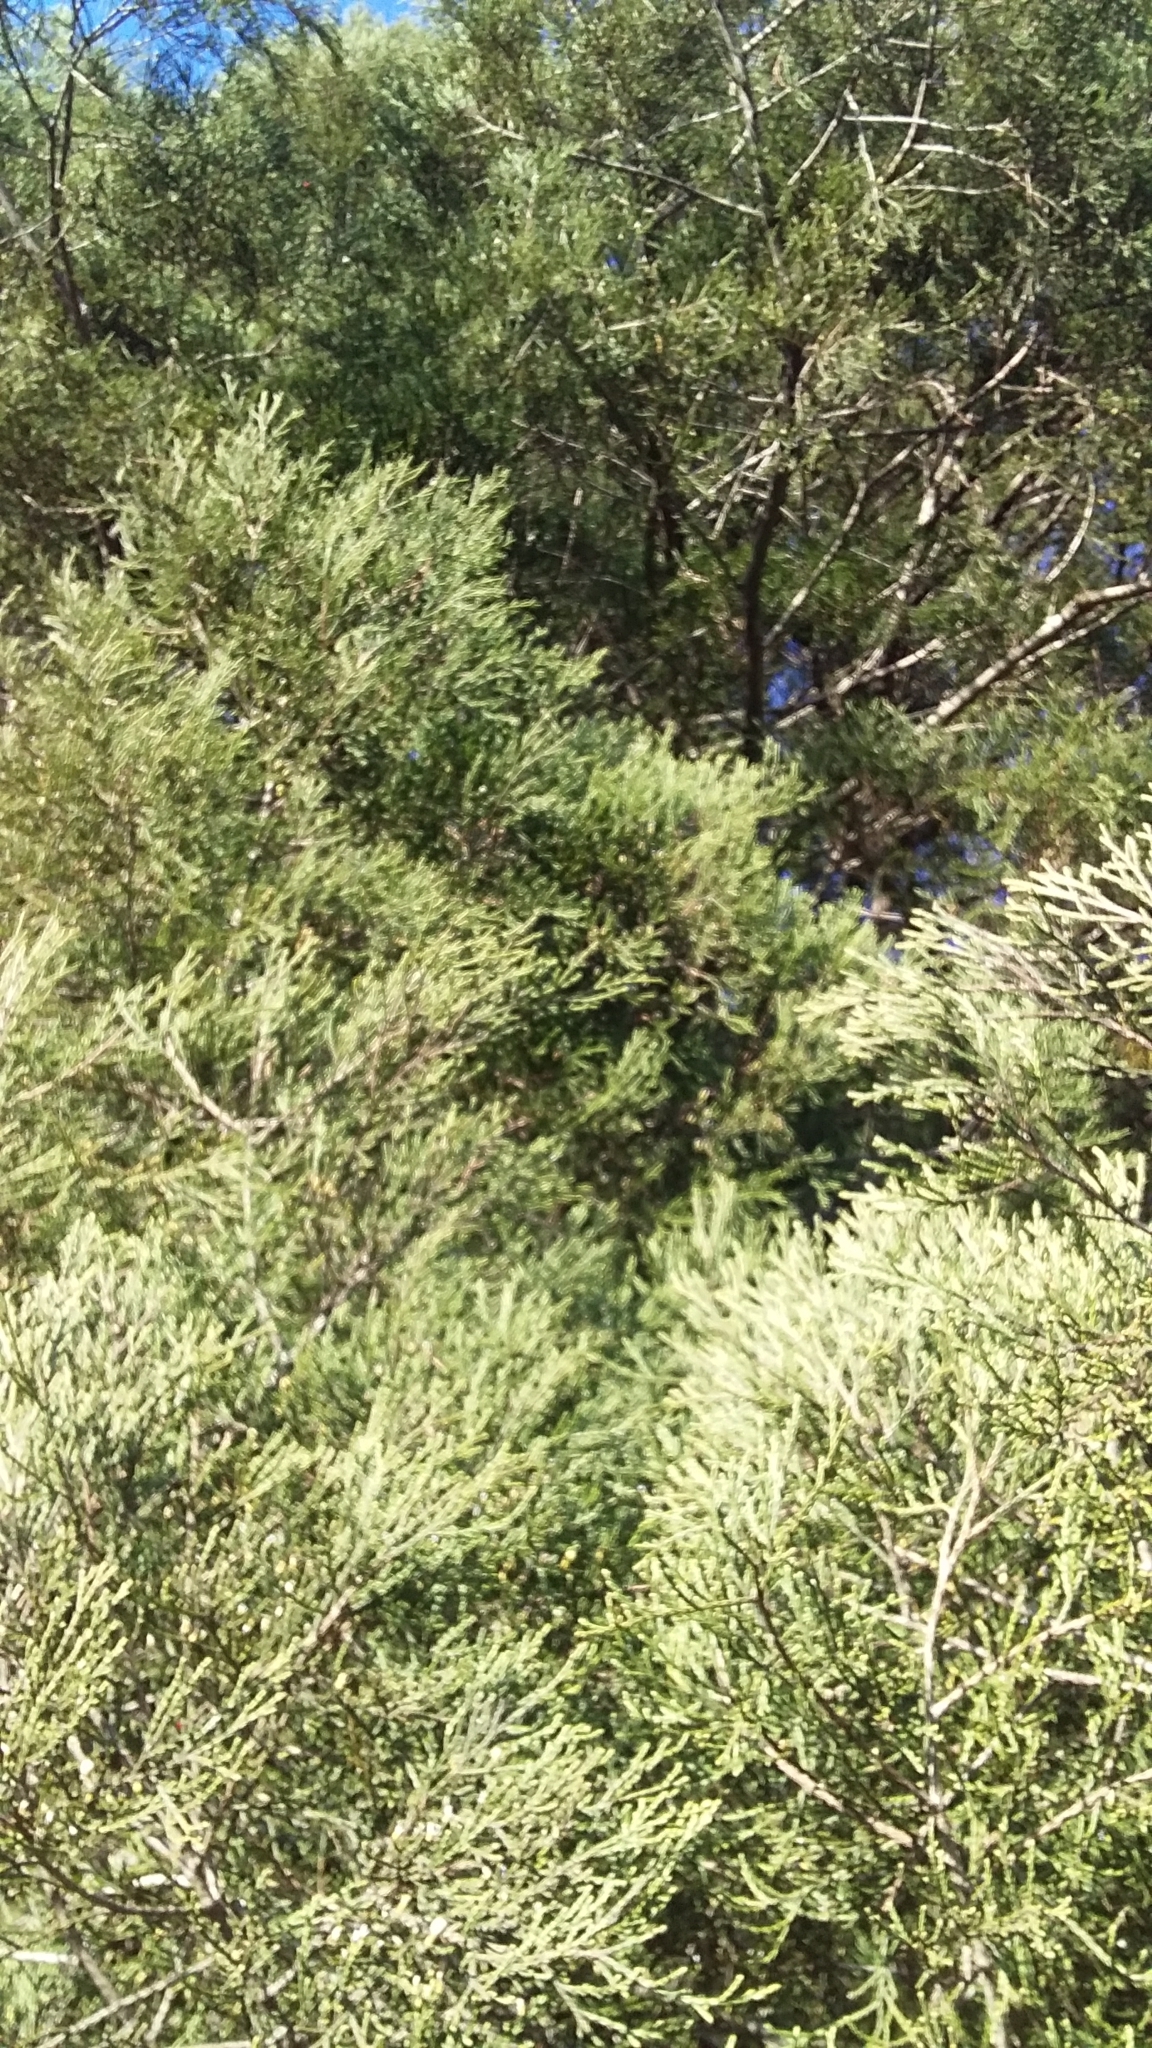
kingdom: Plantae
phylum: Tracheophyta
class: Pinopsida
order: Pinales
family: Podocarpaceae
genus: Dacrycarpus
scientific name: Dacrycarpus dacrydioides
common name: White pine
